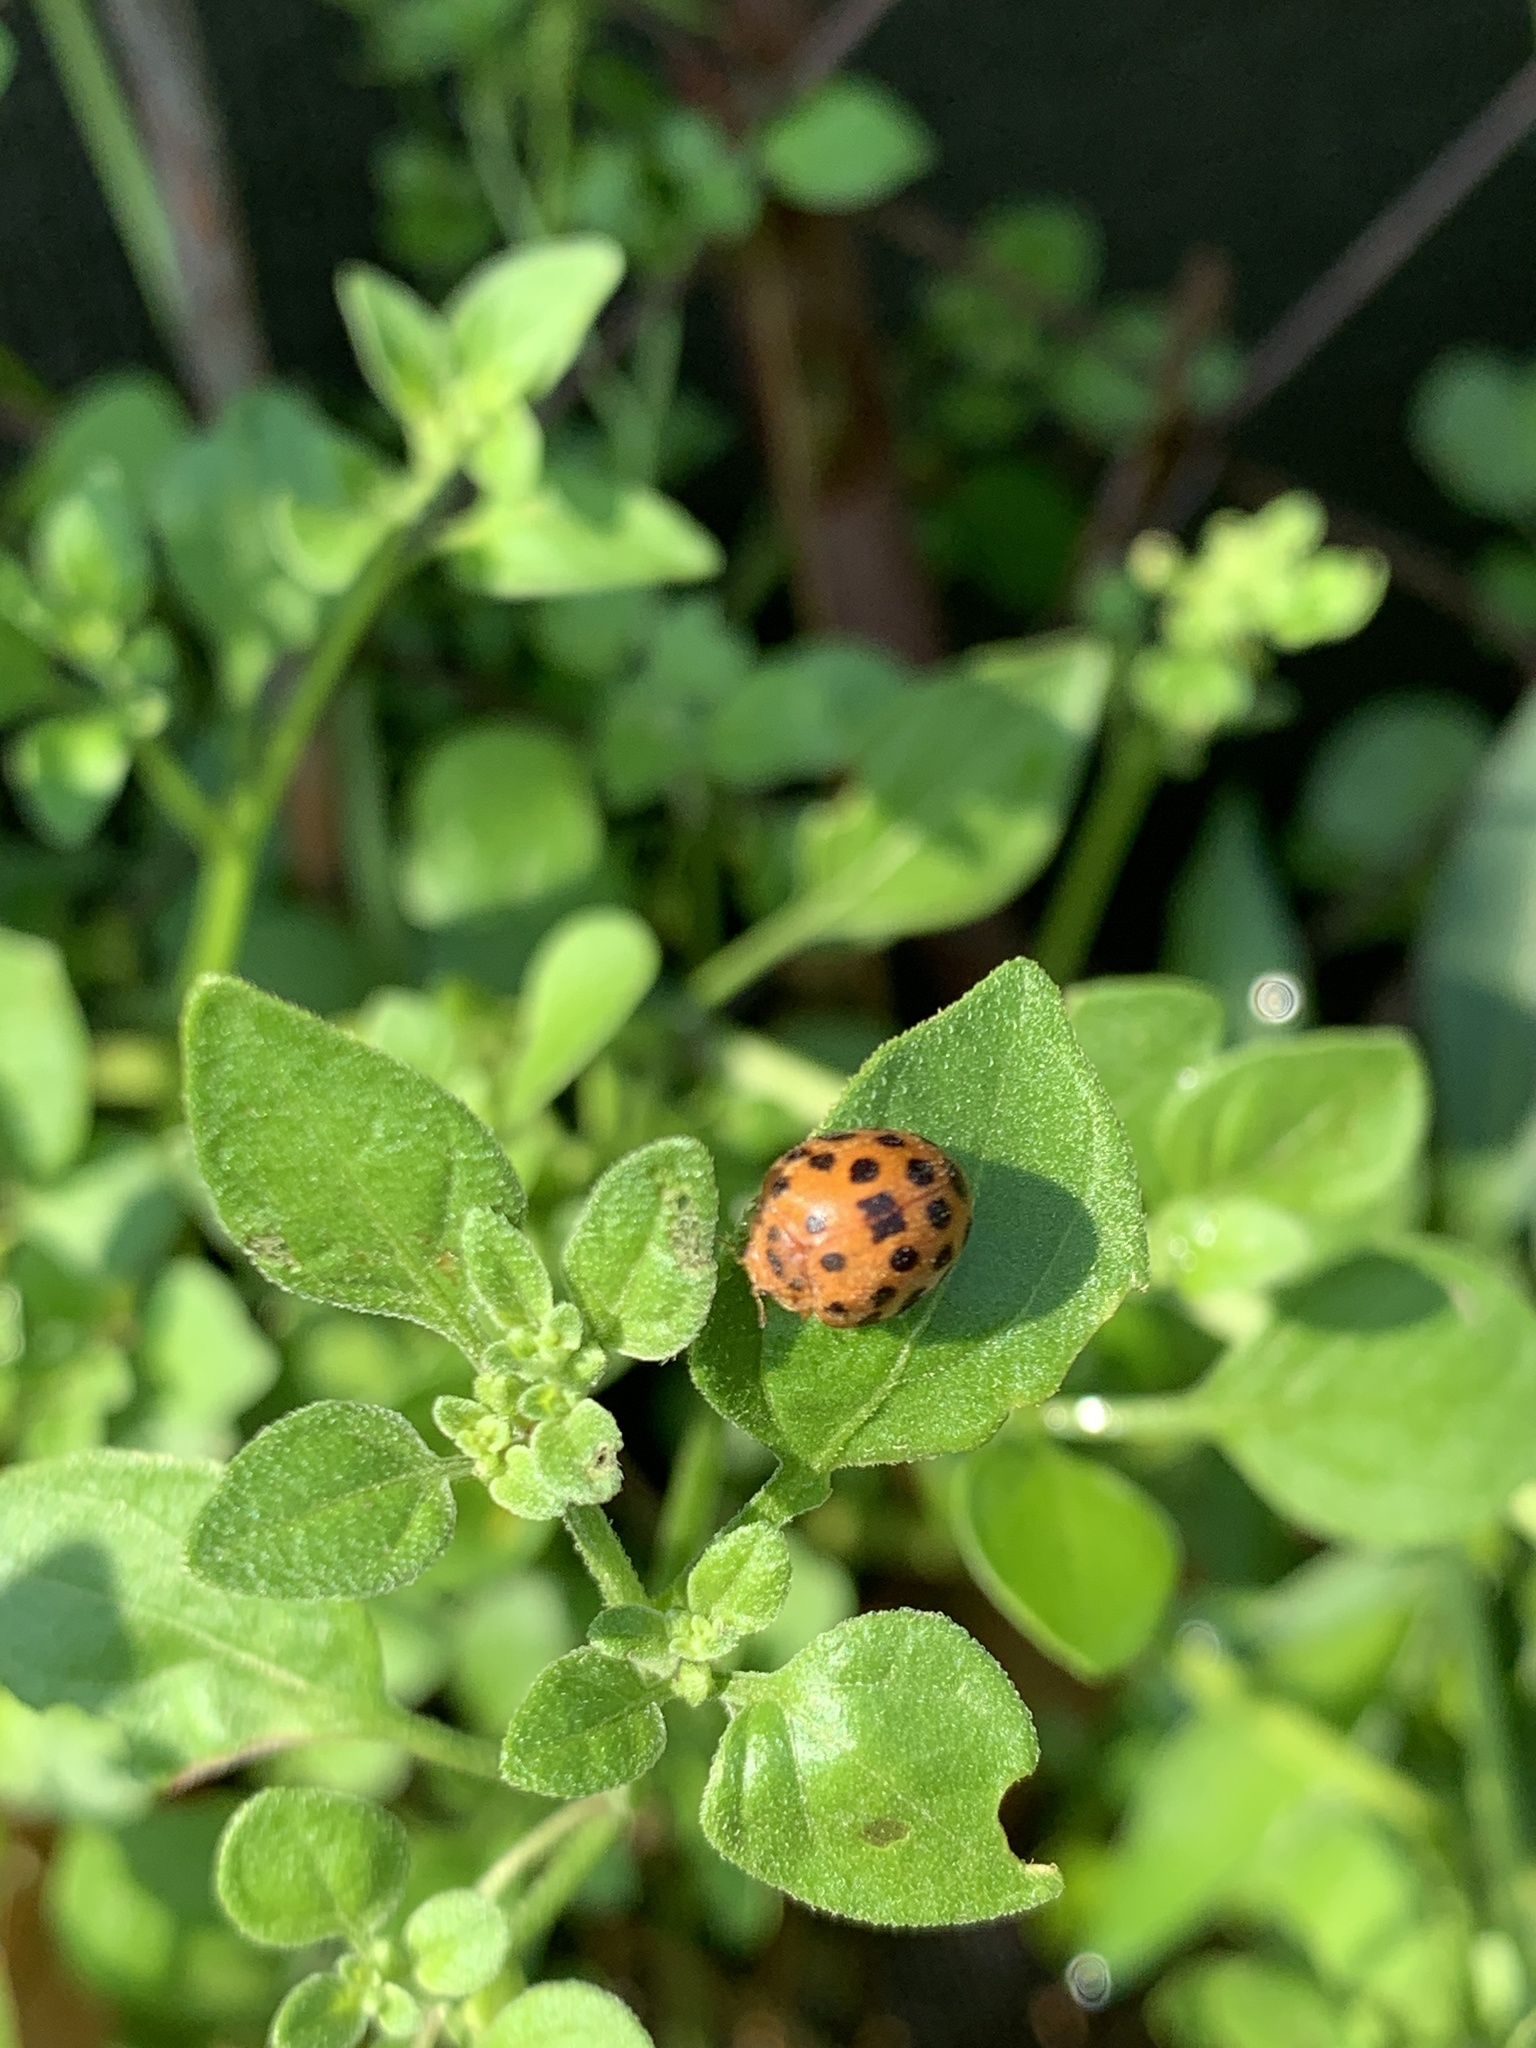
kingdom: Animalia
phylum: Arthropoda
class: Insecta
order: Coleoptera
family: Coccinellidae
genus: Henosepilachna
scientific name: Henosepilachna vigintioctopunctata
